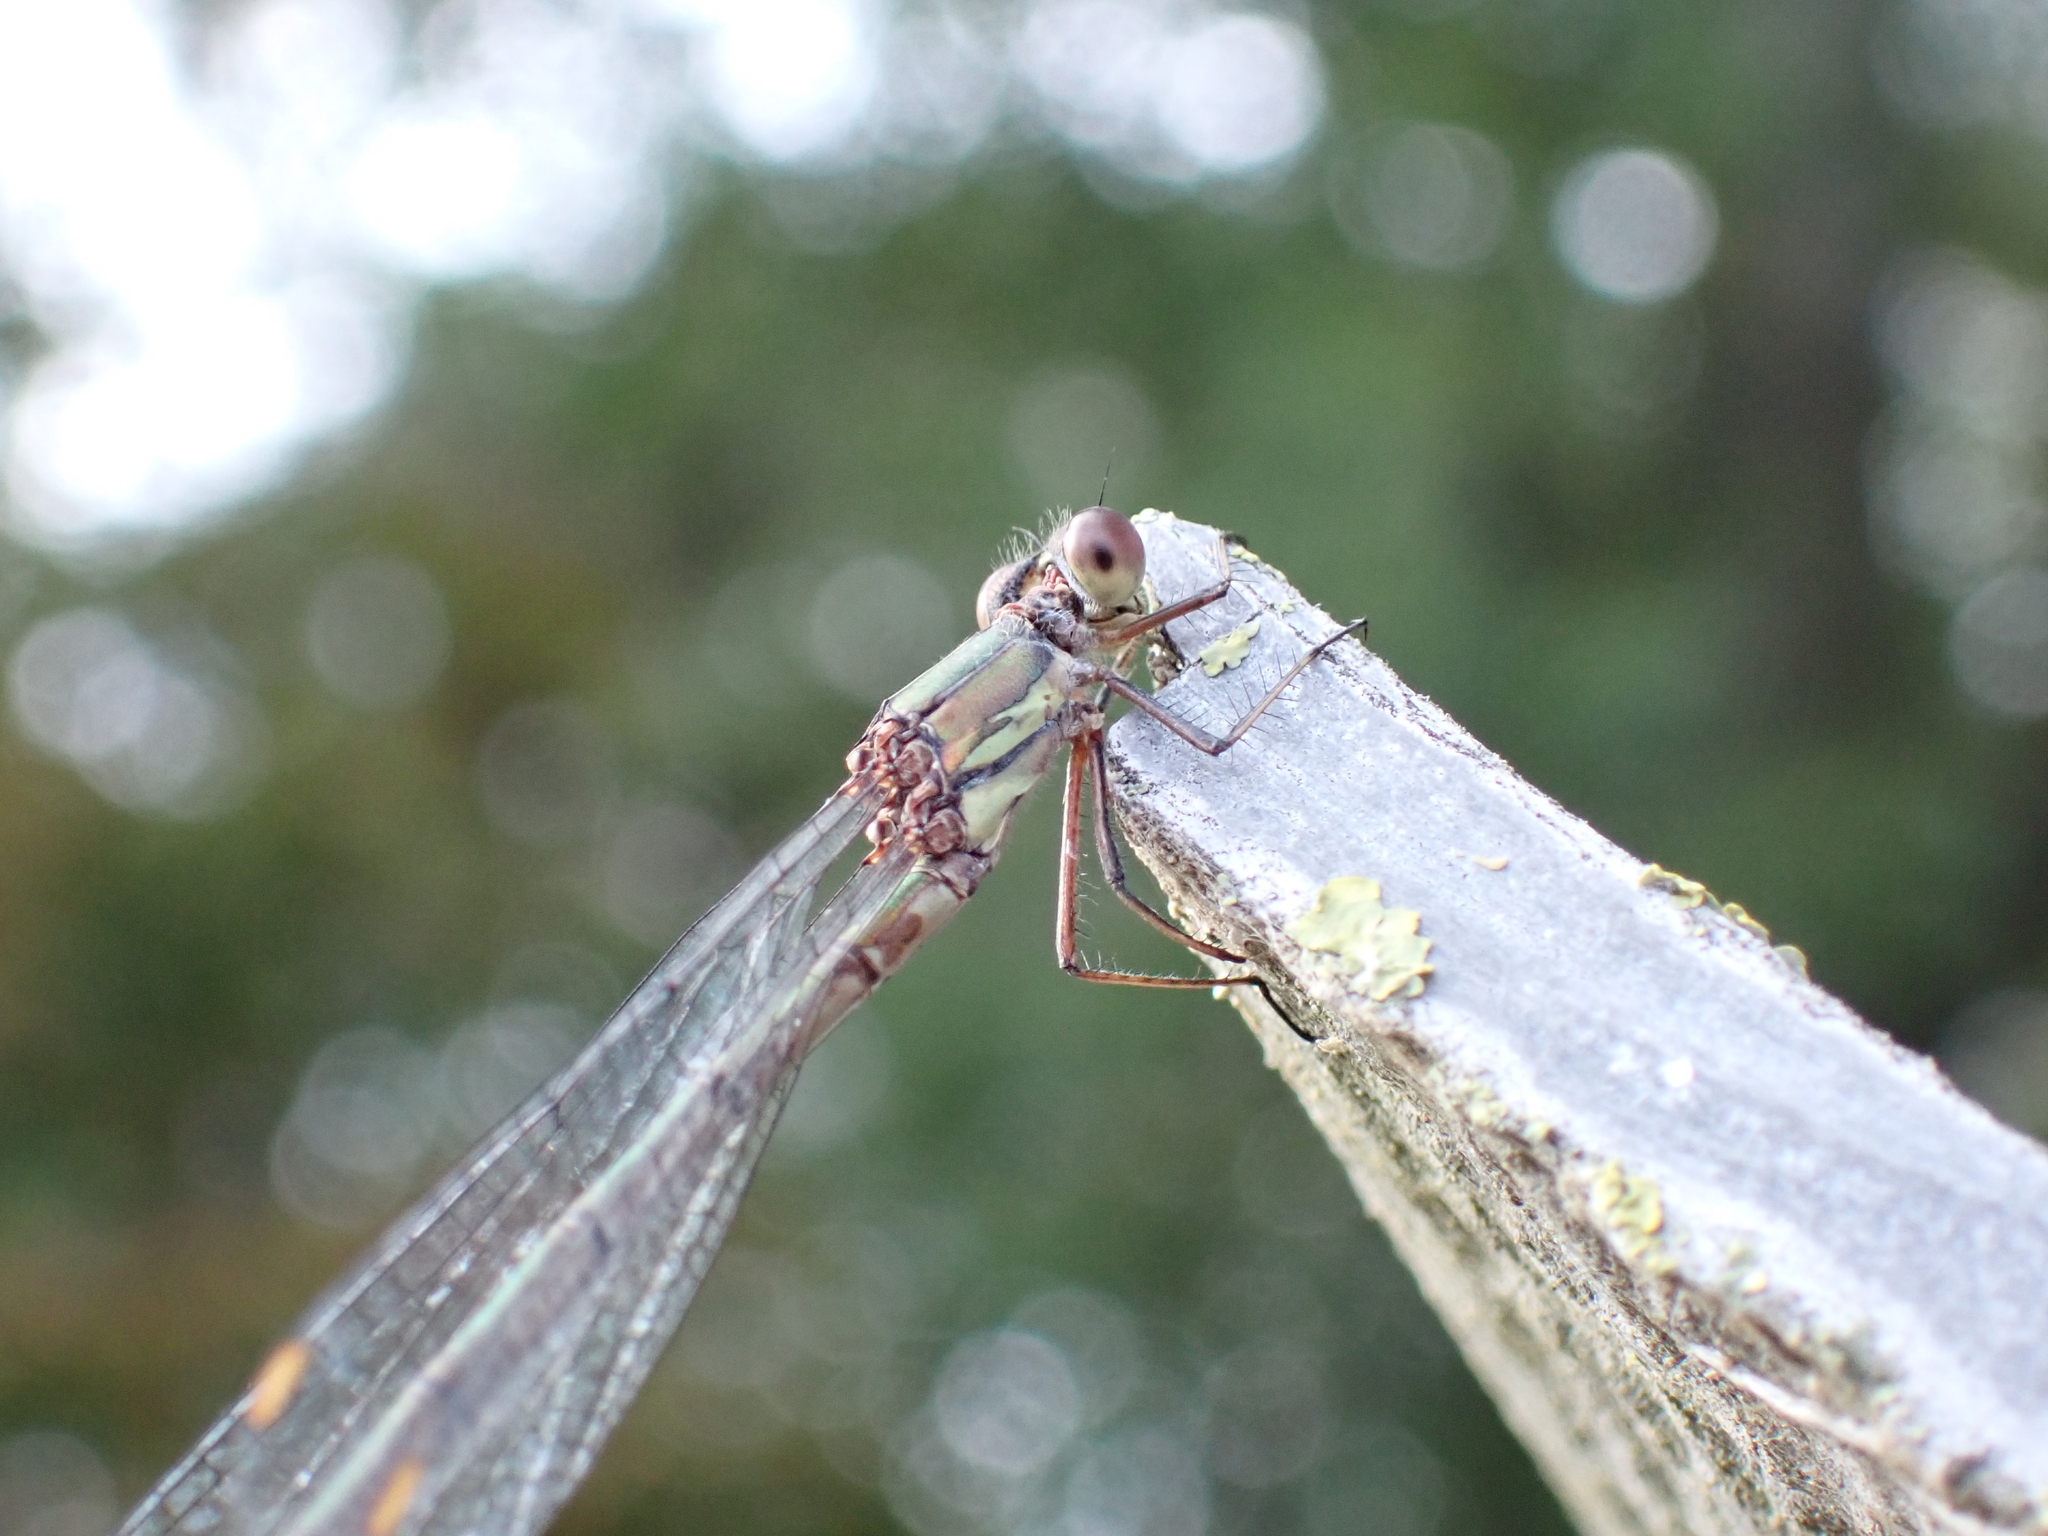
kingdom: Animalia
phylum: Arthropoda
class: Insecta
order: Odonata
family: Lestidae
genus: Chalcolestes
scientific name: Chalcolestes viridis
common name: Green emerald damselfly
